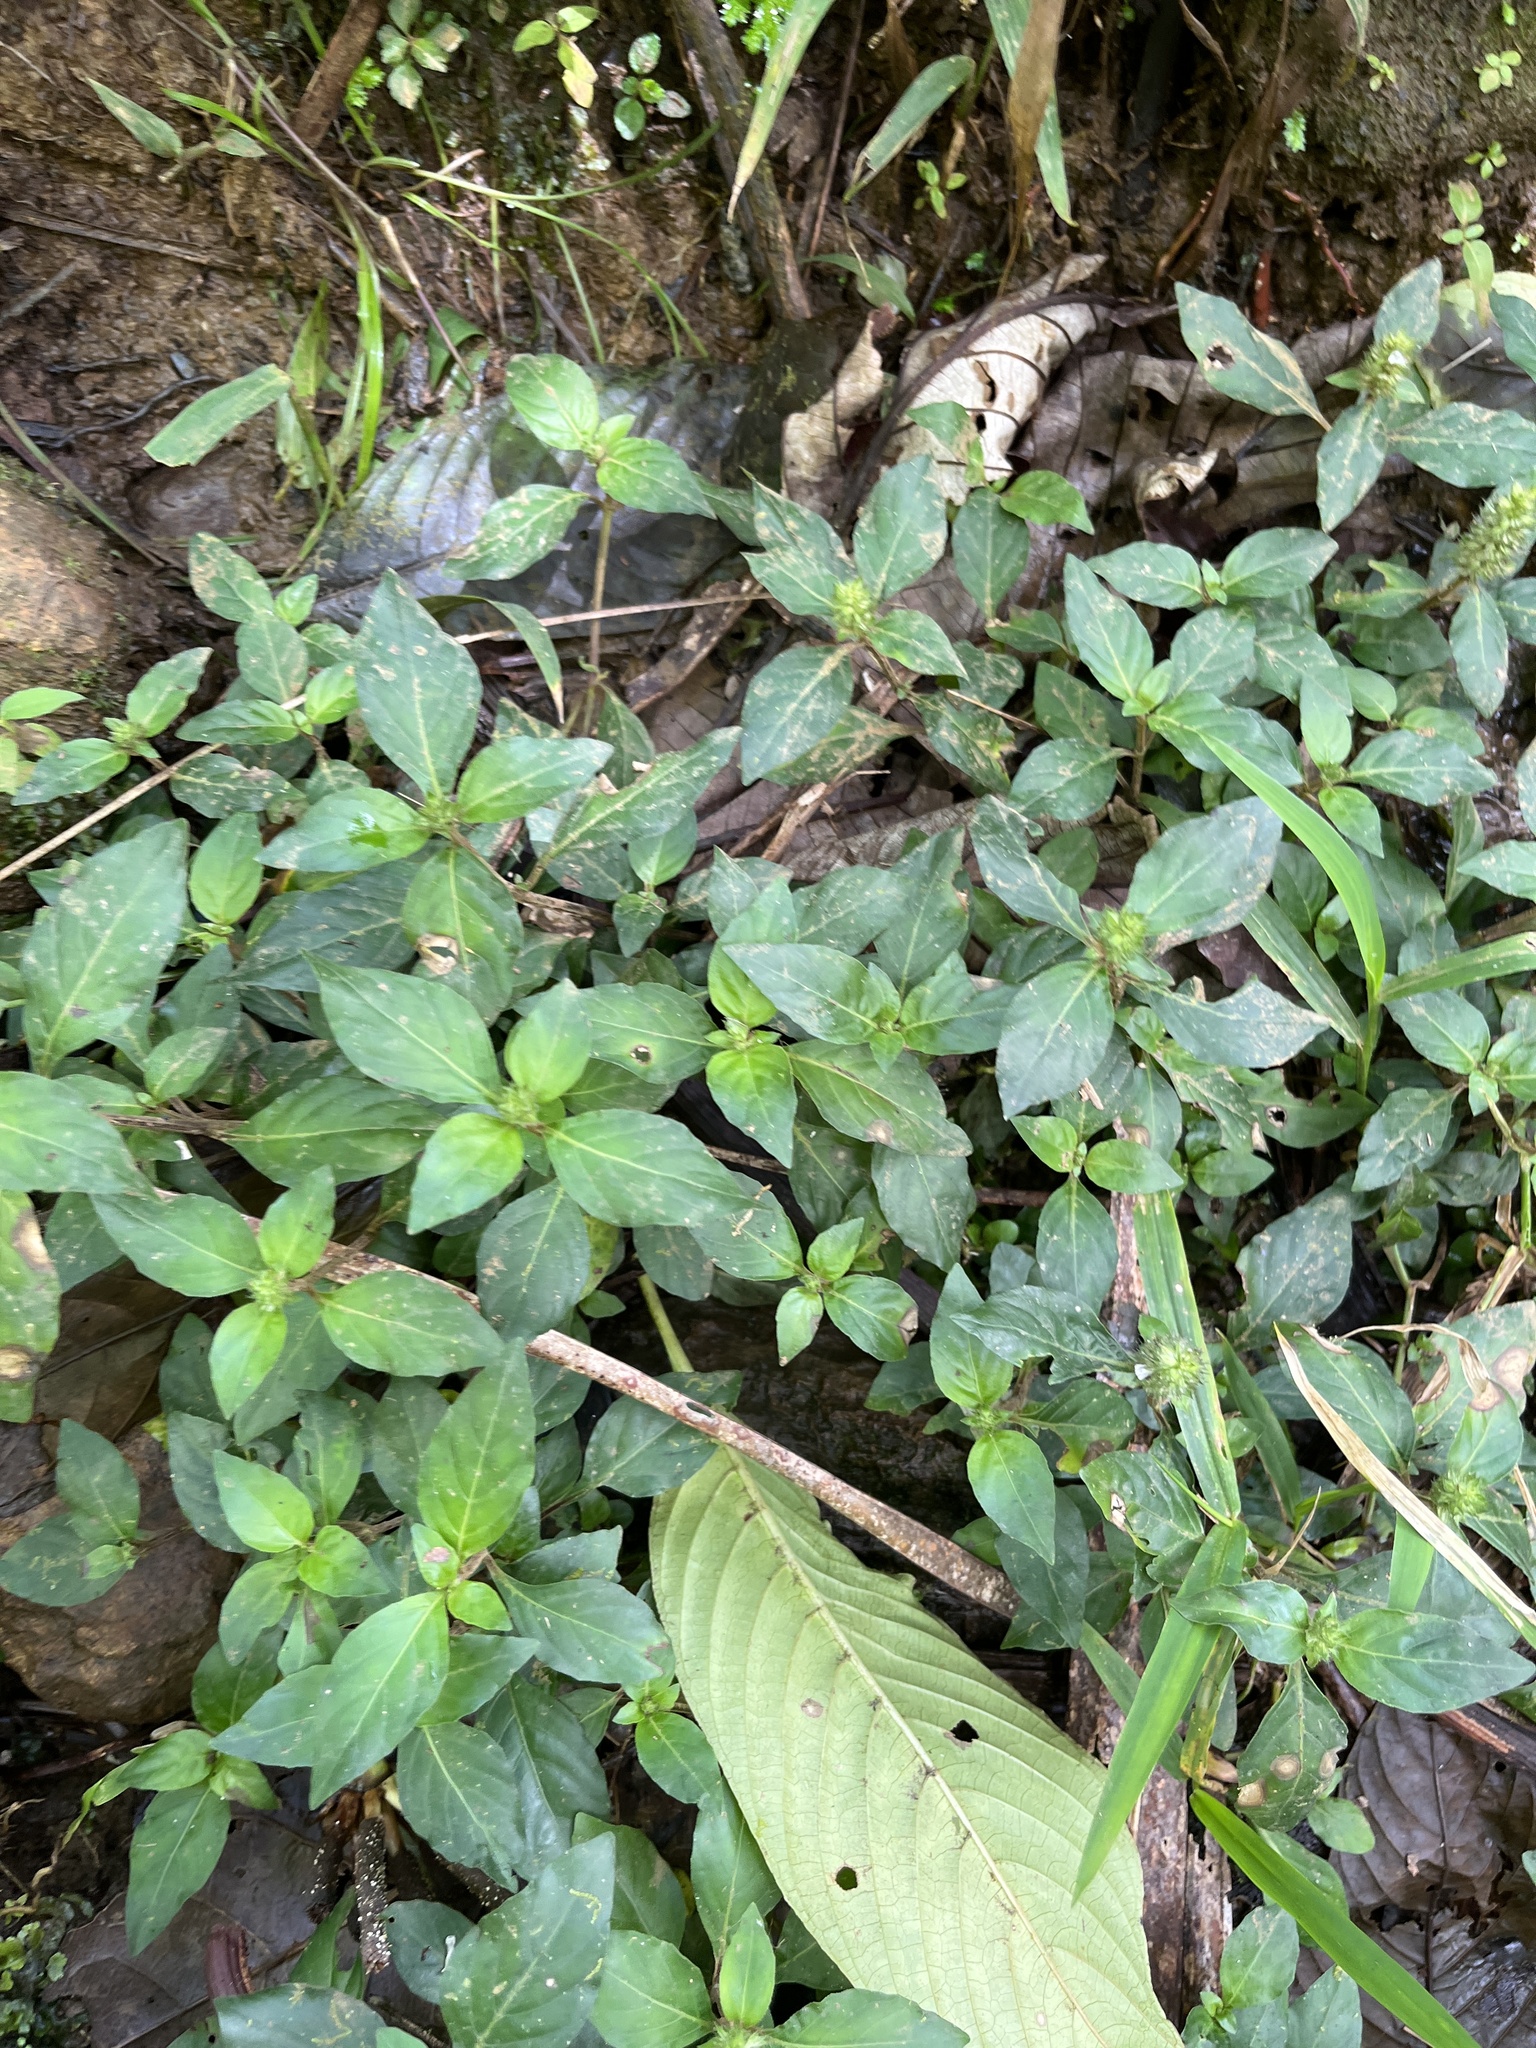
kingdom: Plantae
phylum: Tracheophyta
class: Magnoliopsida
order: Lamiales
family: Acanthaceae
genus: Lepidagathis
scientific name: Lepidagathis alopecuroidea
